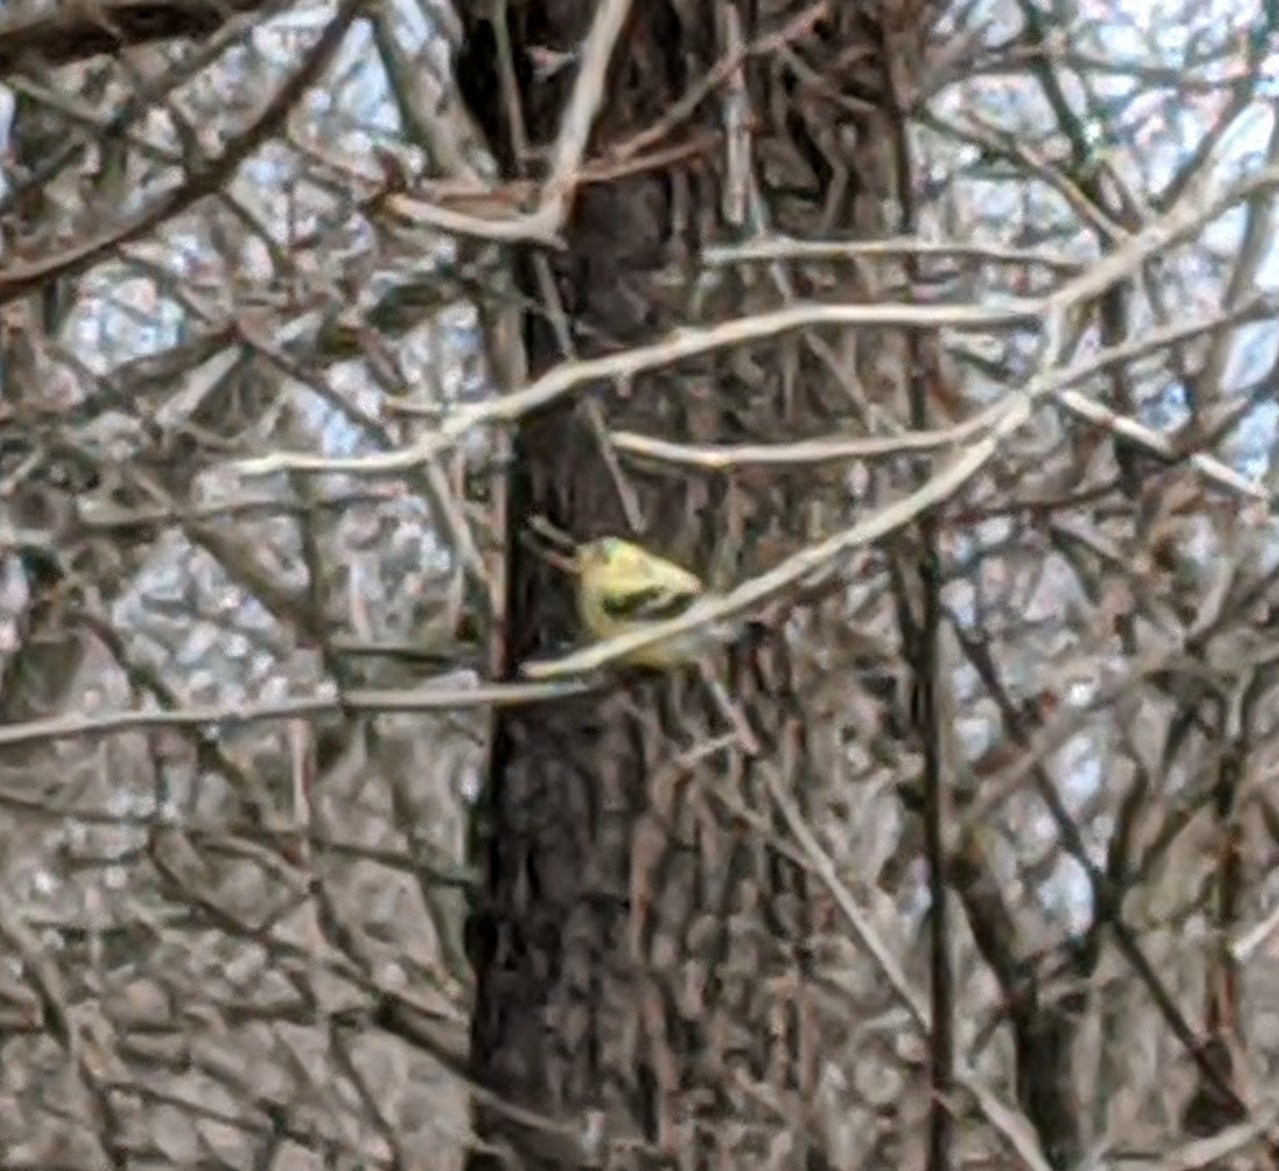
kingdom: Animalia
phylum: Chordata
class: Aves
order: Passeriformes
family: Fringillidae
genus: Spinus
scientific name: Spinus tristis
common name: American goldfinch
